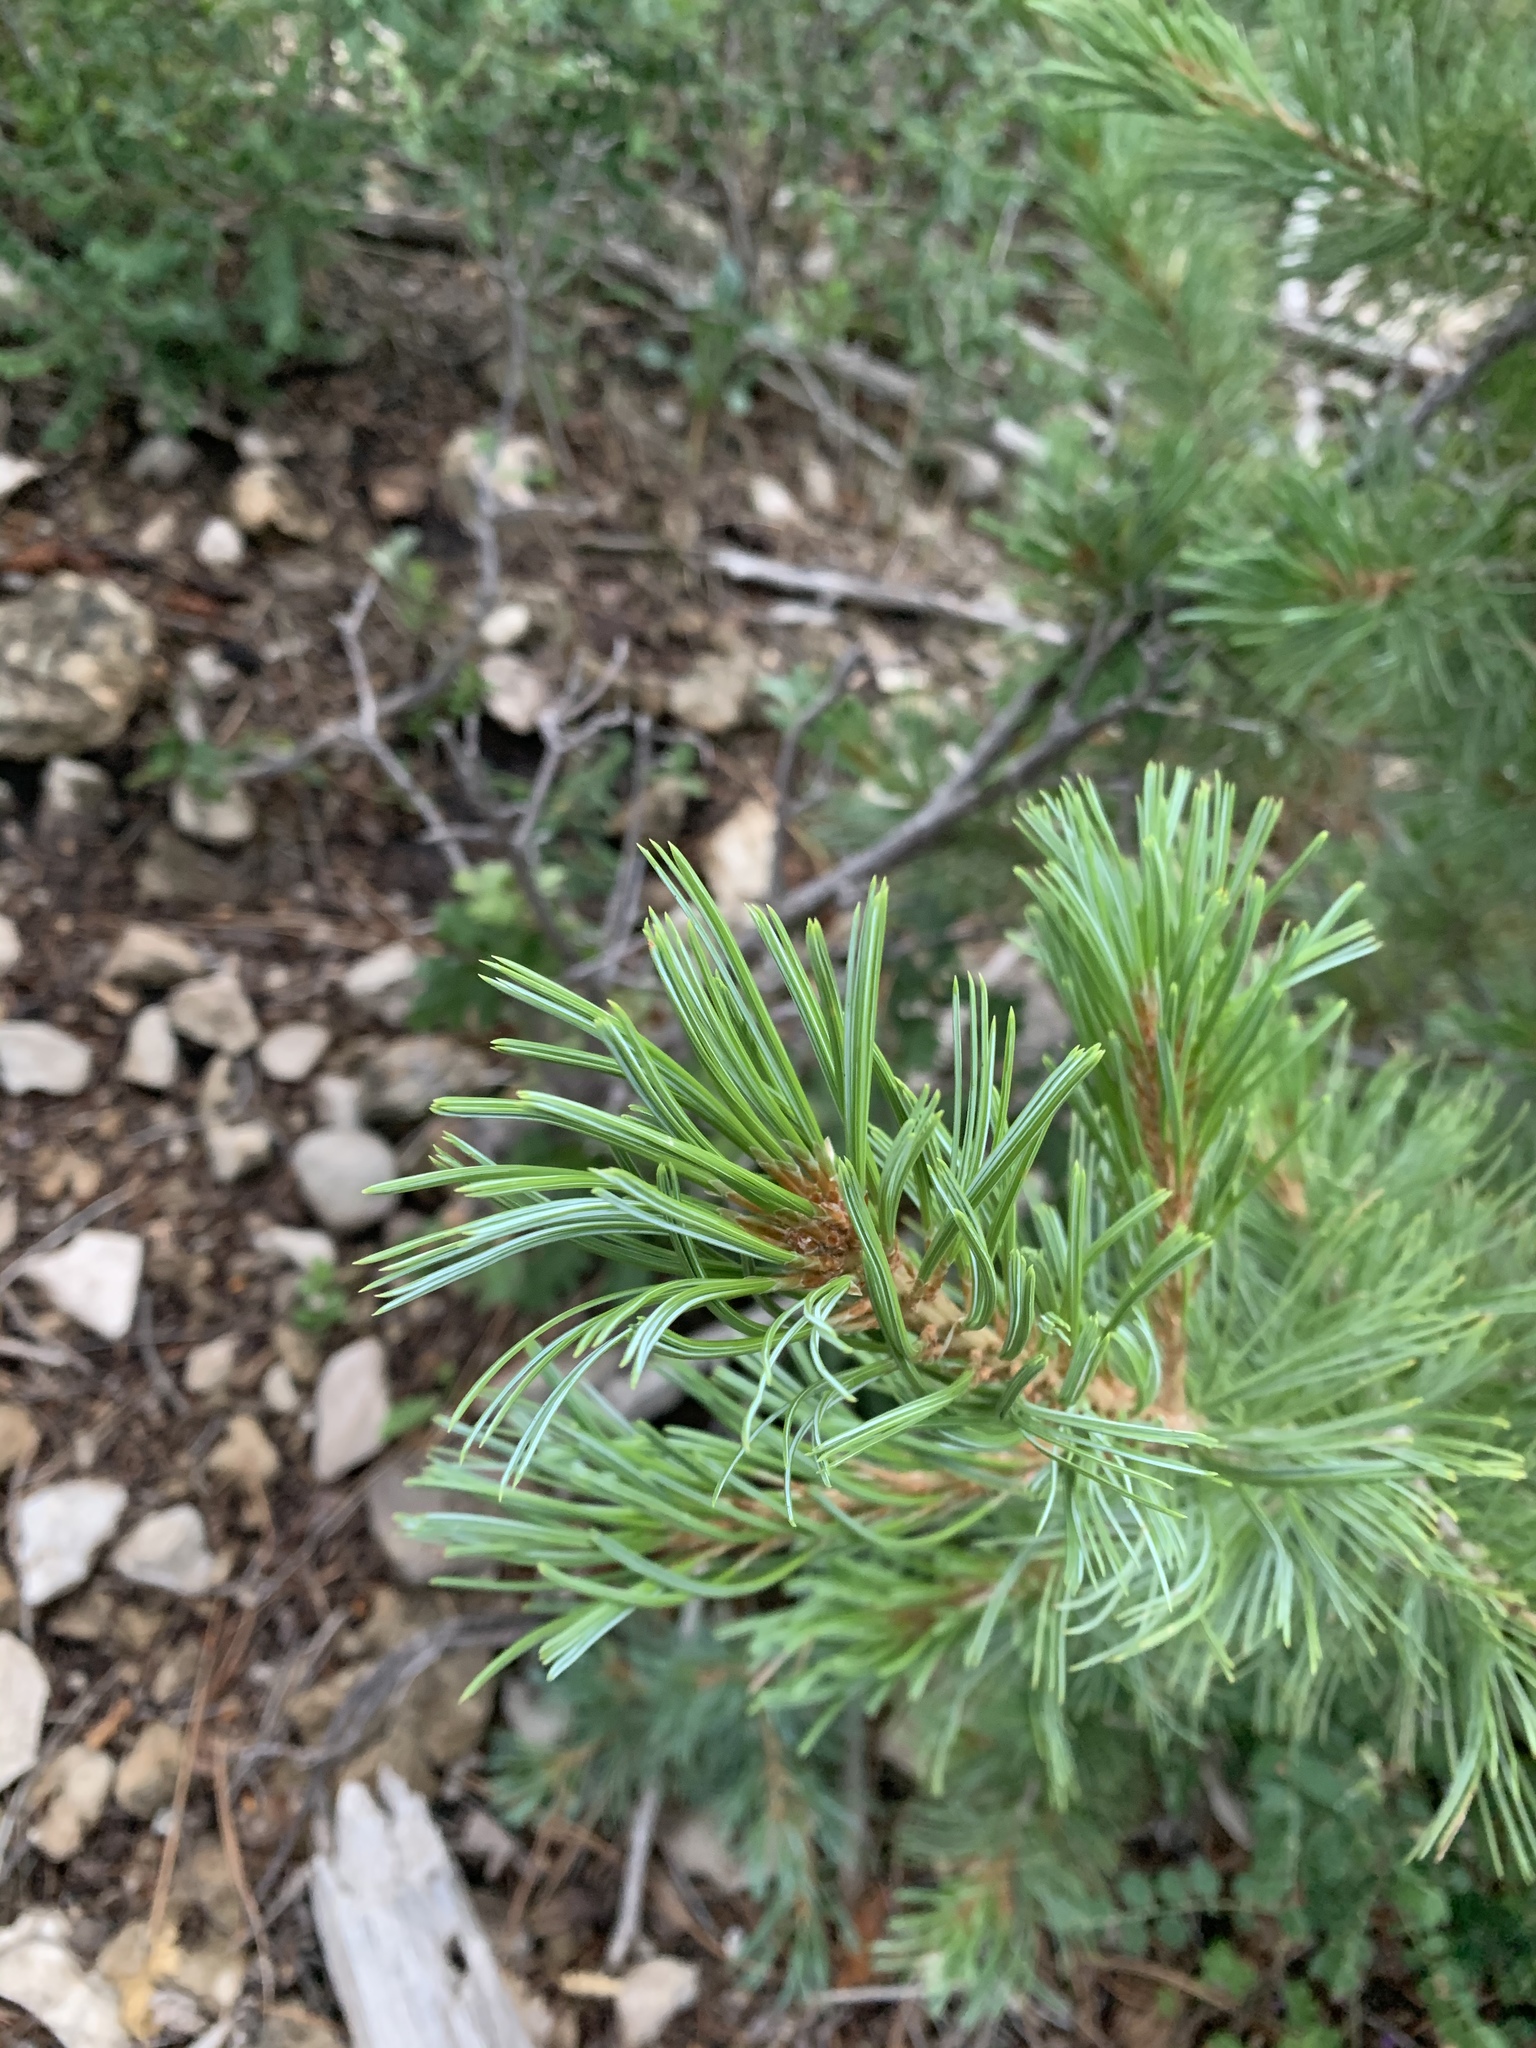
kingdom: Plantae
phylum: Tracheophyta
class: Pinopsida
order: Pinales
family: Pinaceae
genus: Pinus
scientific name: Pinus strobiformis
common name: Southwestern white pine
